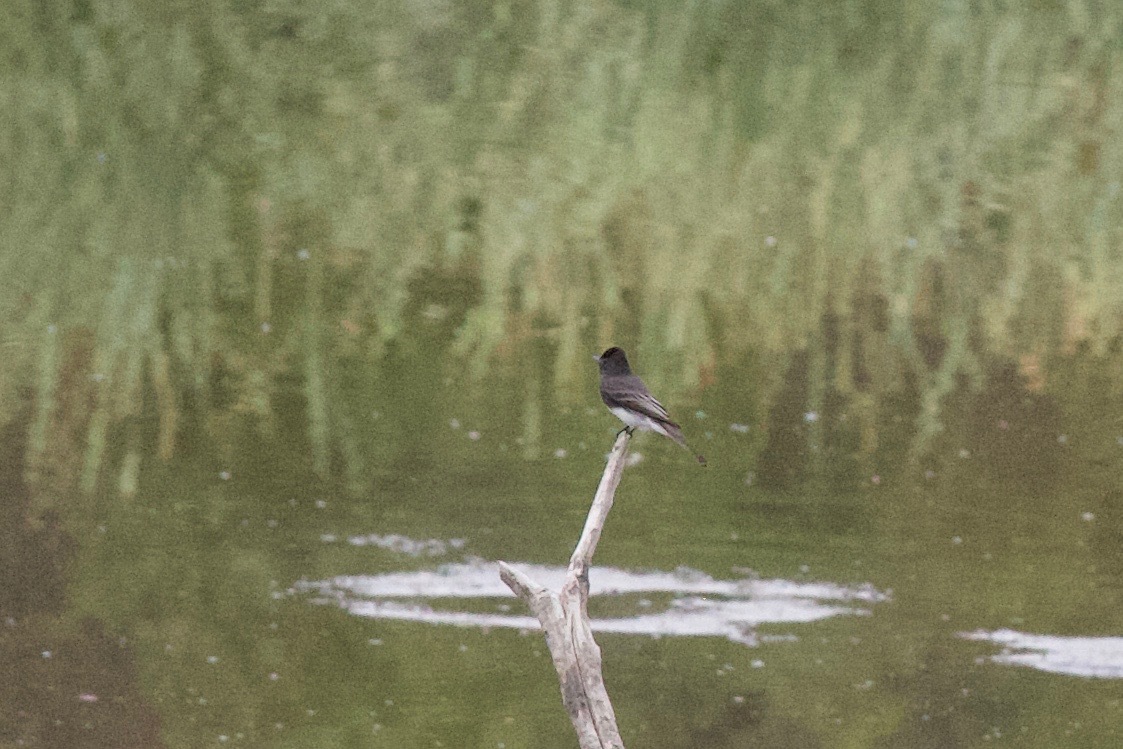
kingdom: Animalia
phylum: Chordata
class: Aves
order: Passeriformes
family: Tyrannidae
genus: Sayornis
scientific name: Sayornis nigricans
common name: Black phoebe
